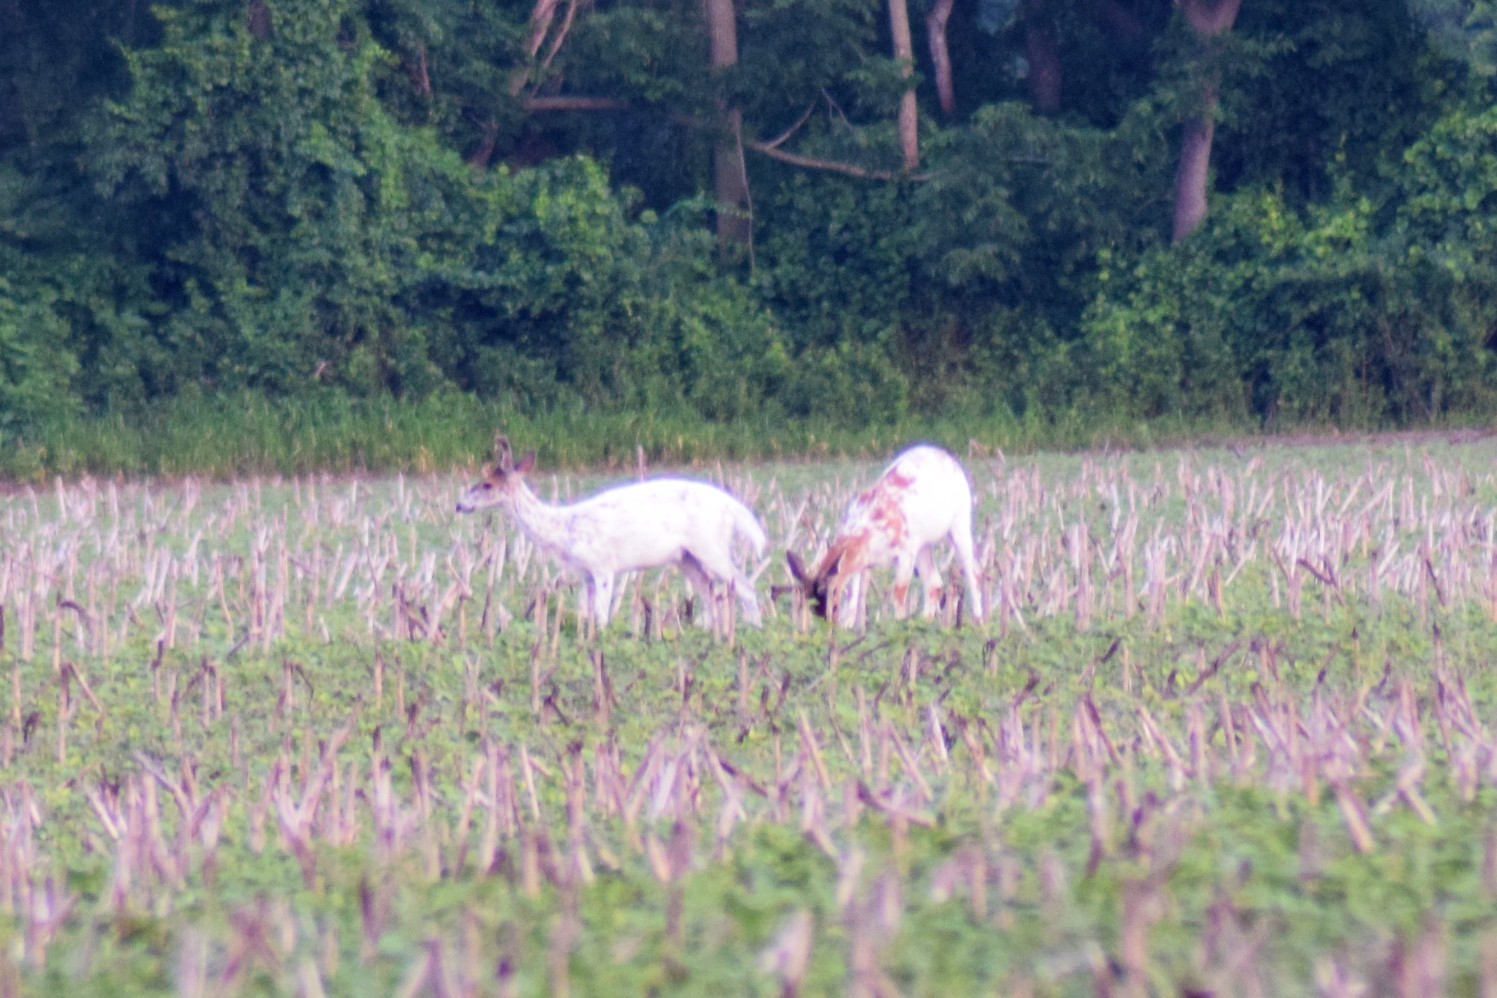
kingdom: Animalia
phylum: Chordata
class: Mammalia
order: Artiodactyla
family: Cervidae
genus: Odocoileus
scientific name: Odocoileus virginianus
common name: White-tailed deer
